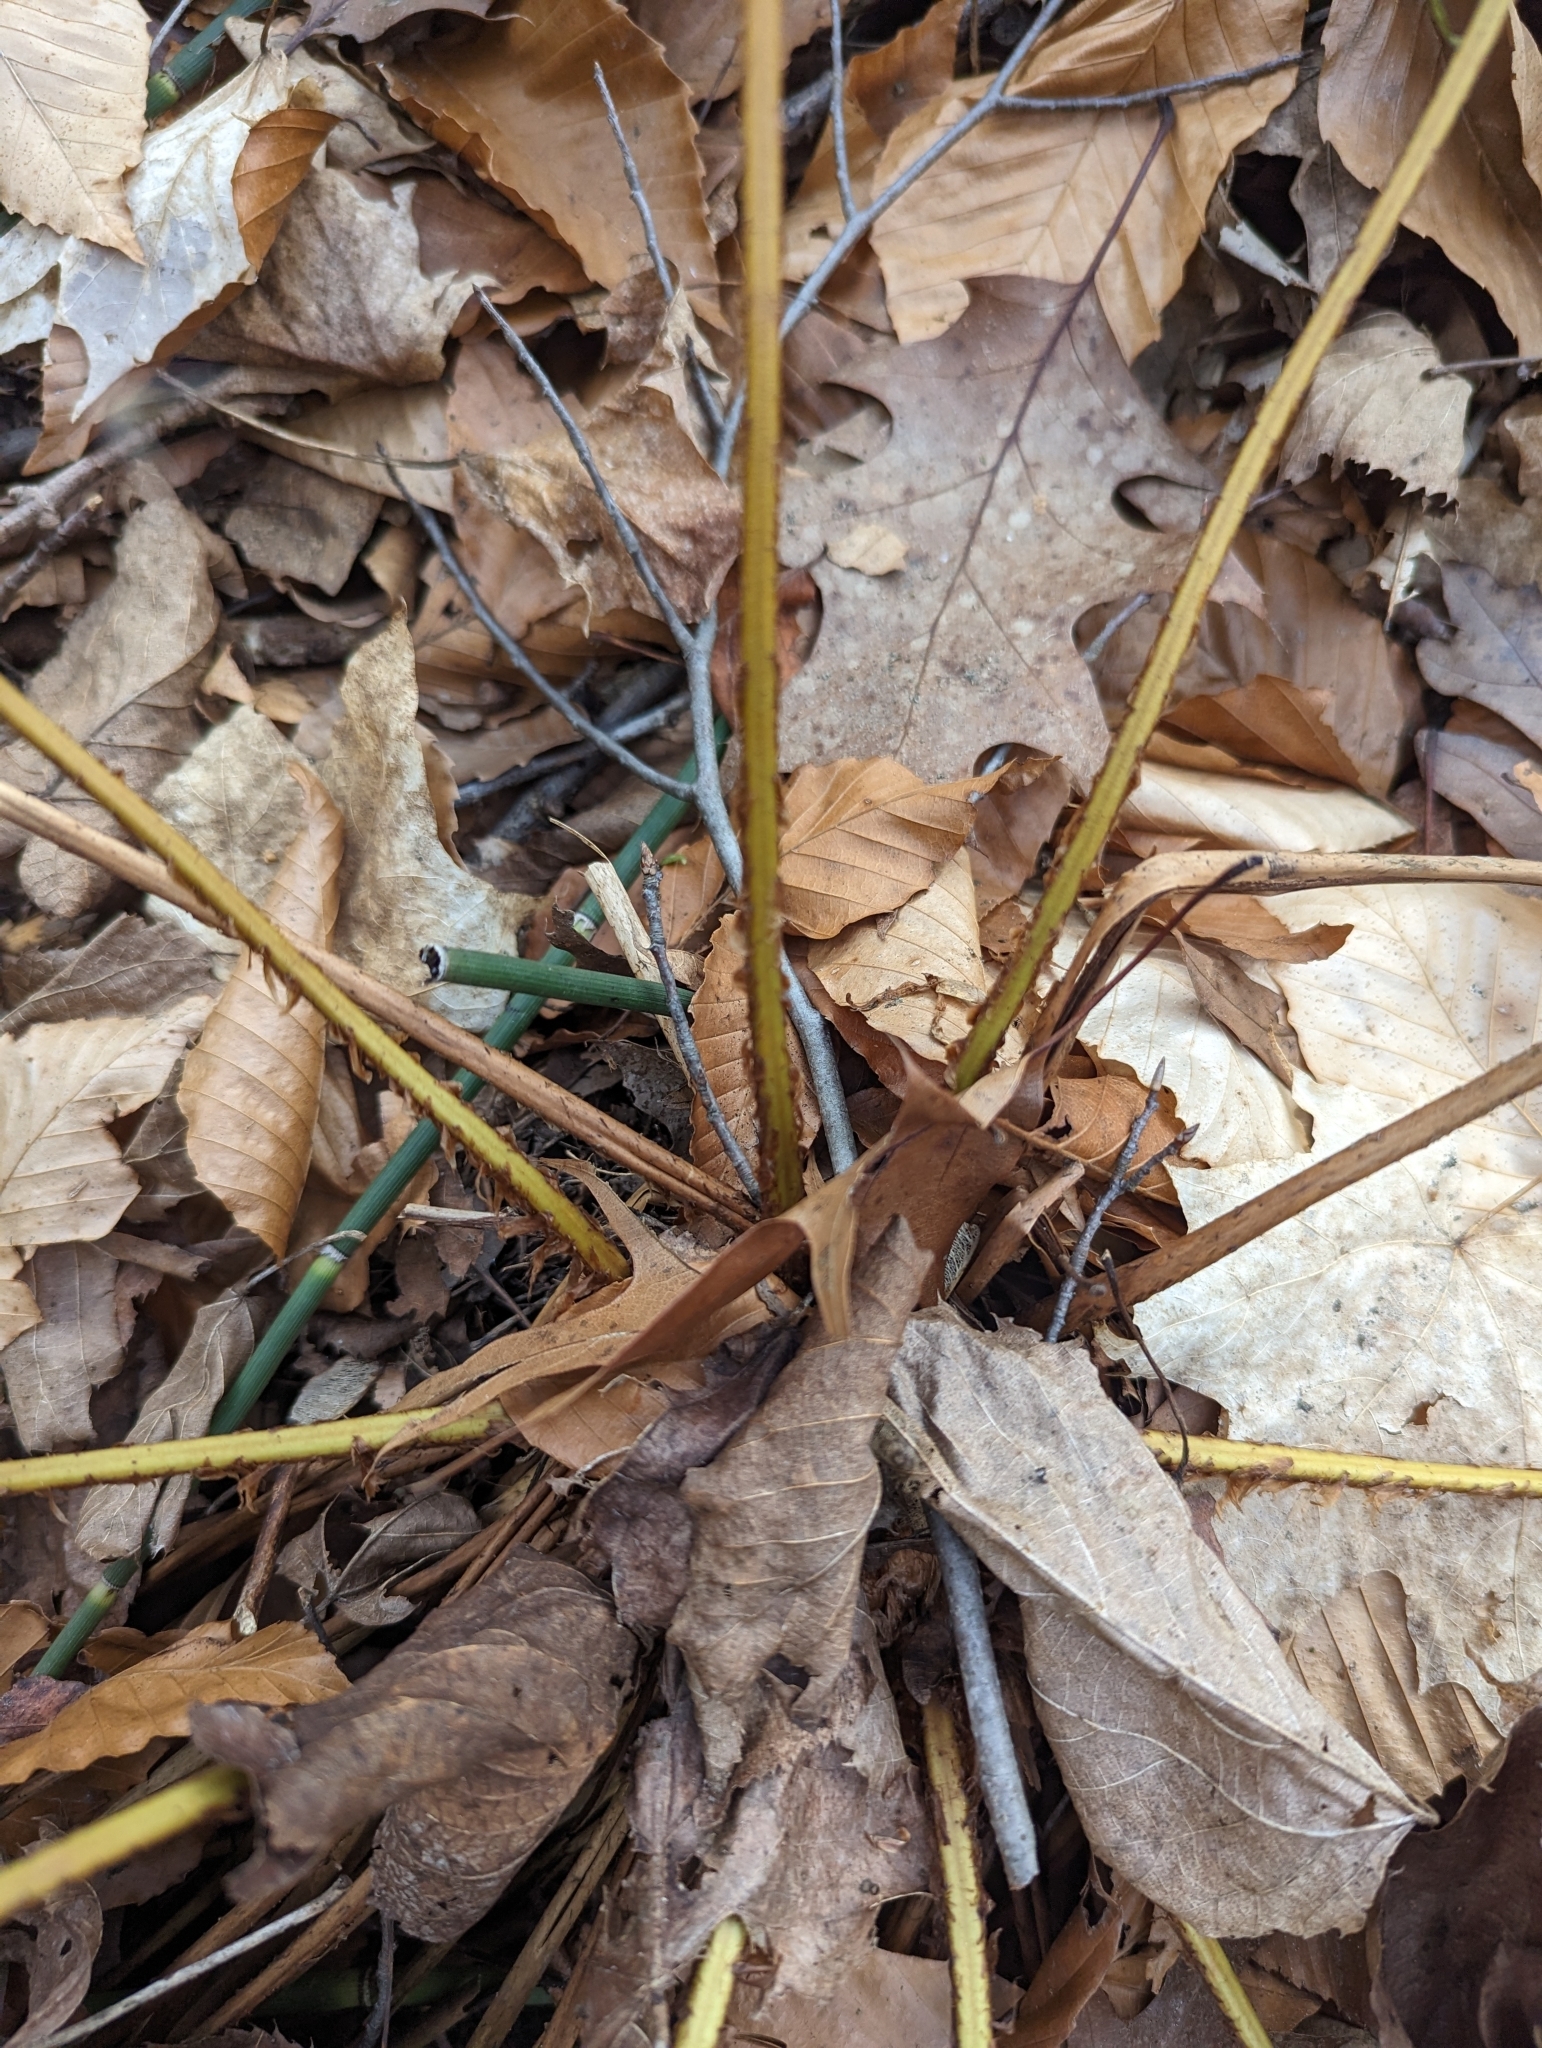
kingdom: Plantae
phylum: Tracheophyta
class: Polypodiopsida
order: Polypodiales
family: Dryopteridaceae
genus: Dryopteris
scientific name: Dryopteris marginalis
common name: Marginal wood fern
